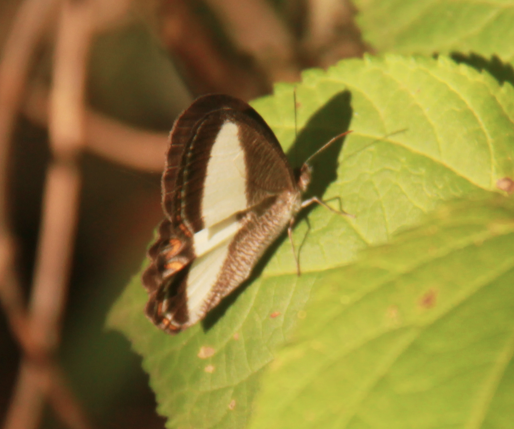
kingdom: Animalia
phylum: Arthropoda
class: Insecta
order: Lepidoptera
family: Nymphalidae
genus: Oressinoma
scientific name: Oressinoma typhla
